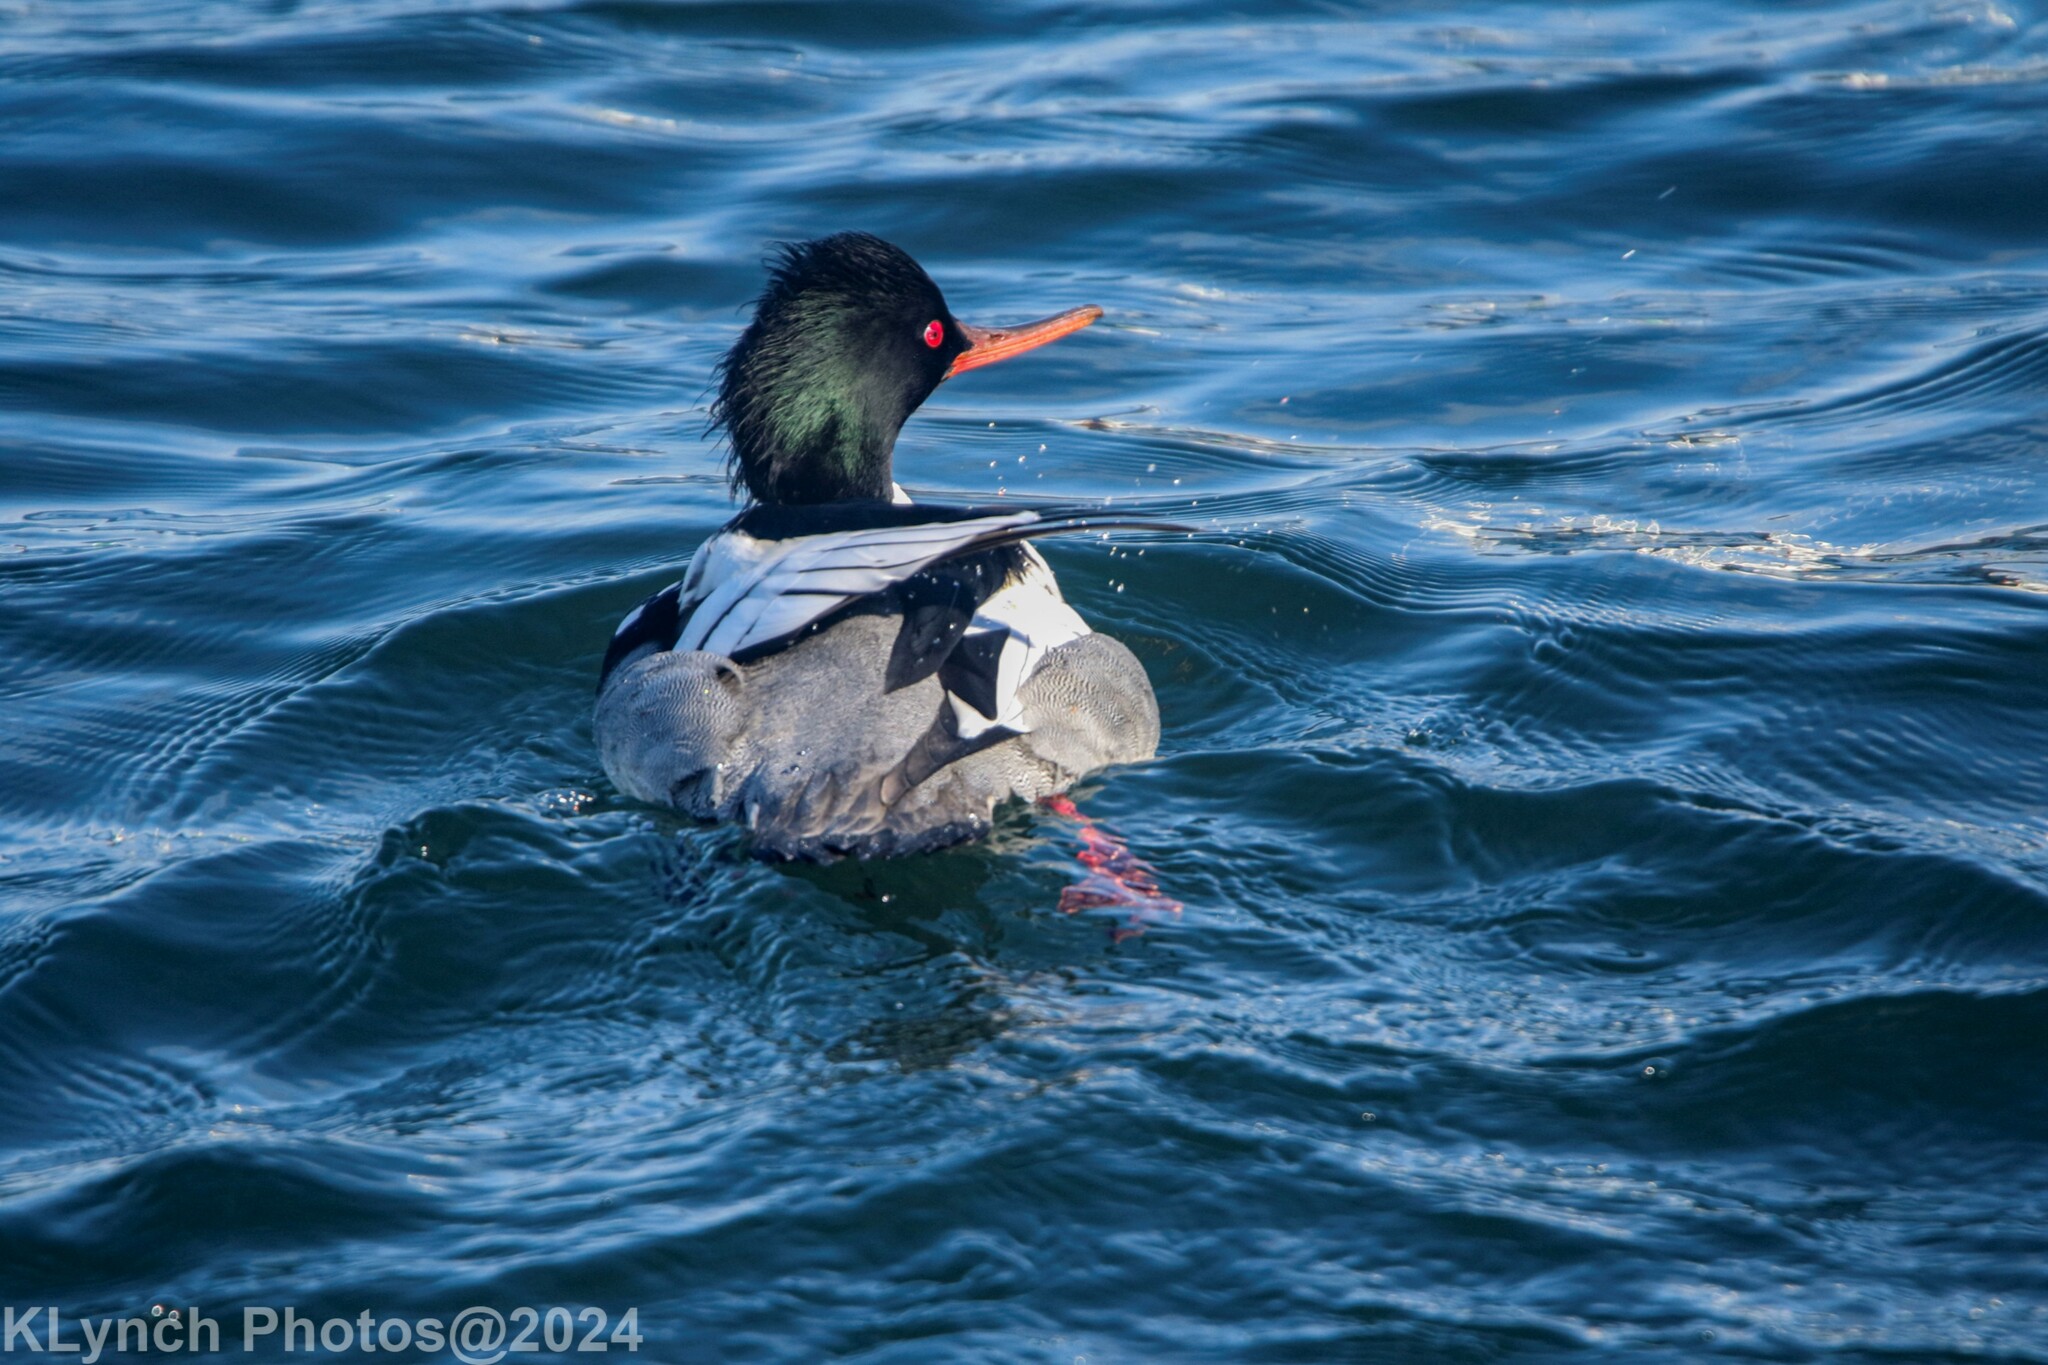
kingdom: Animalia
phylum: Chordata
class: Aves
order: Anseriformes
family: Anatidae
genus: Mergus
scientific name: Mergus serrator
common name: Red-breasted merganser
